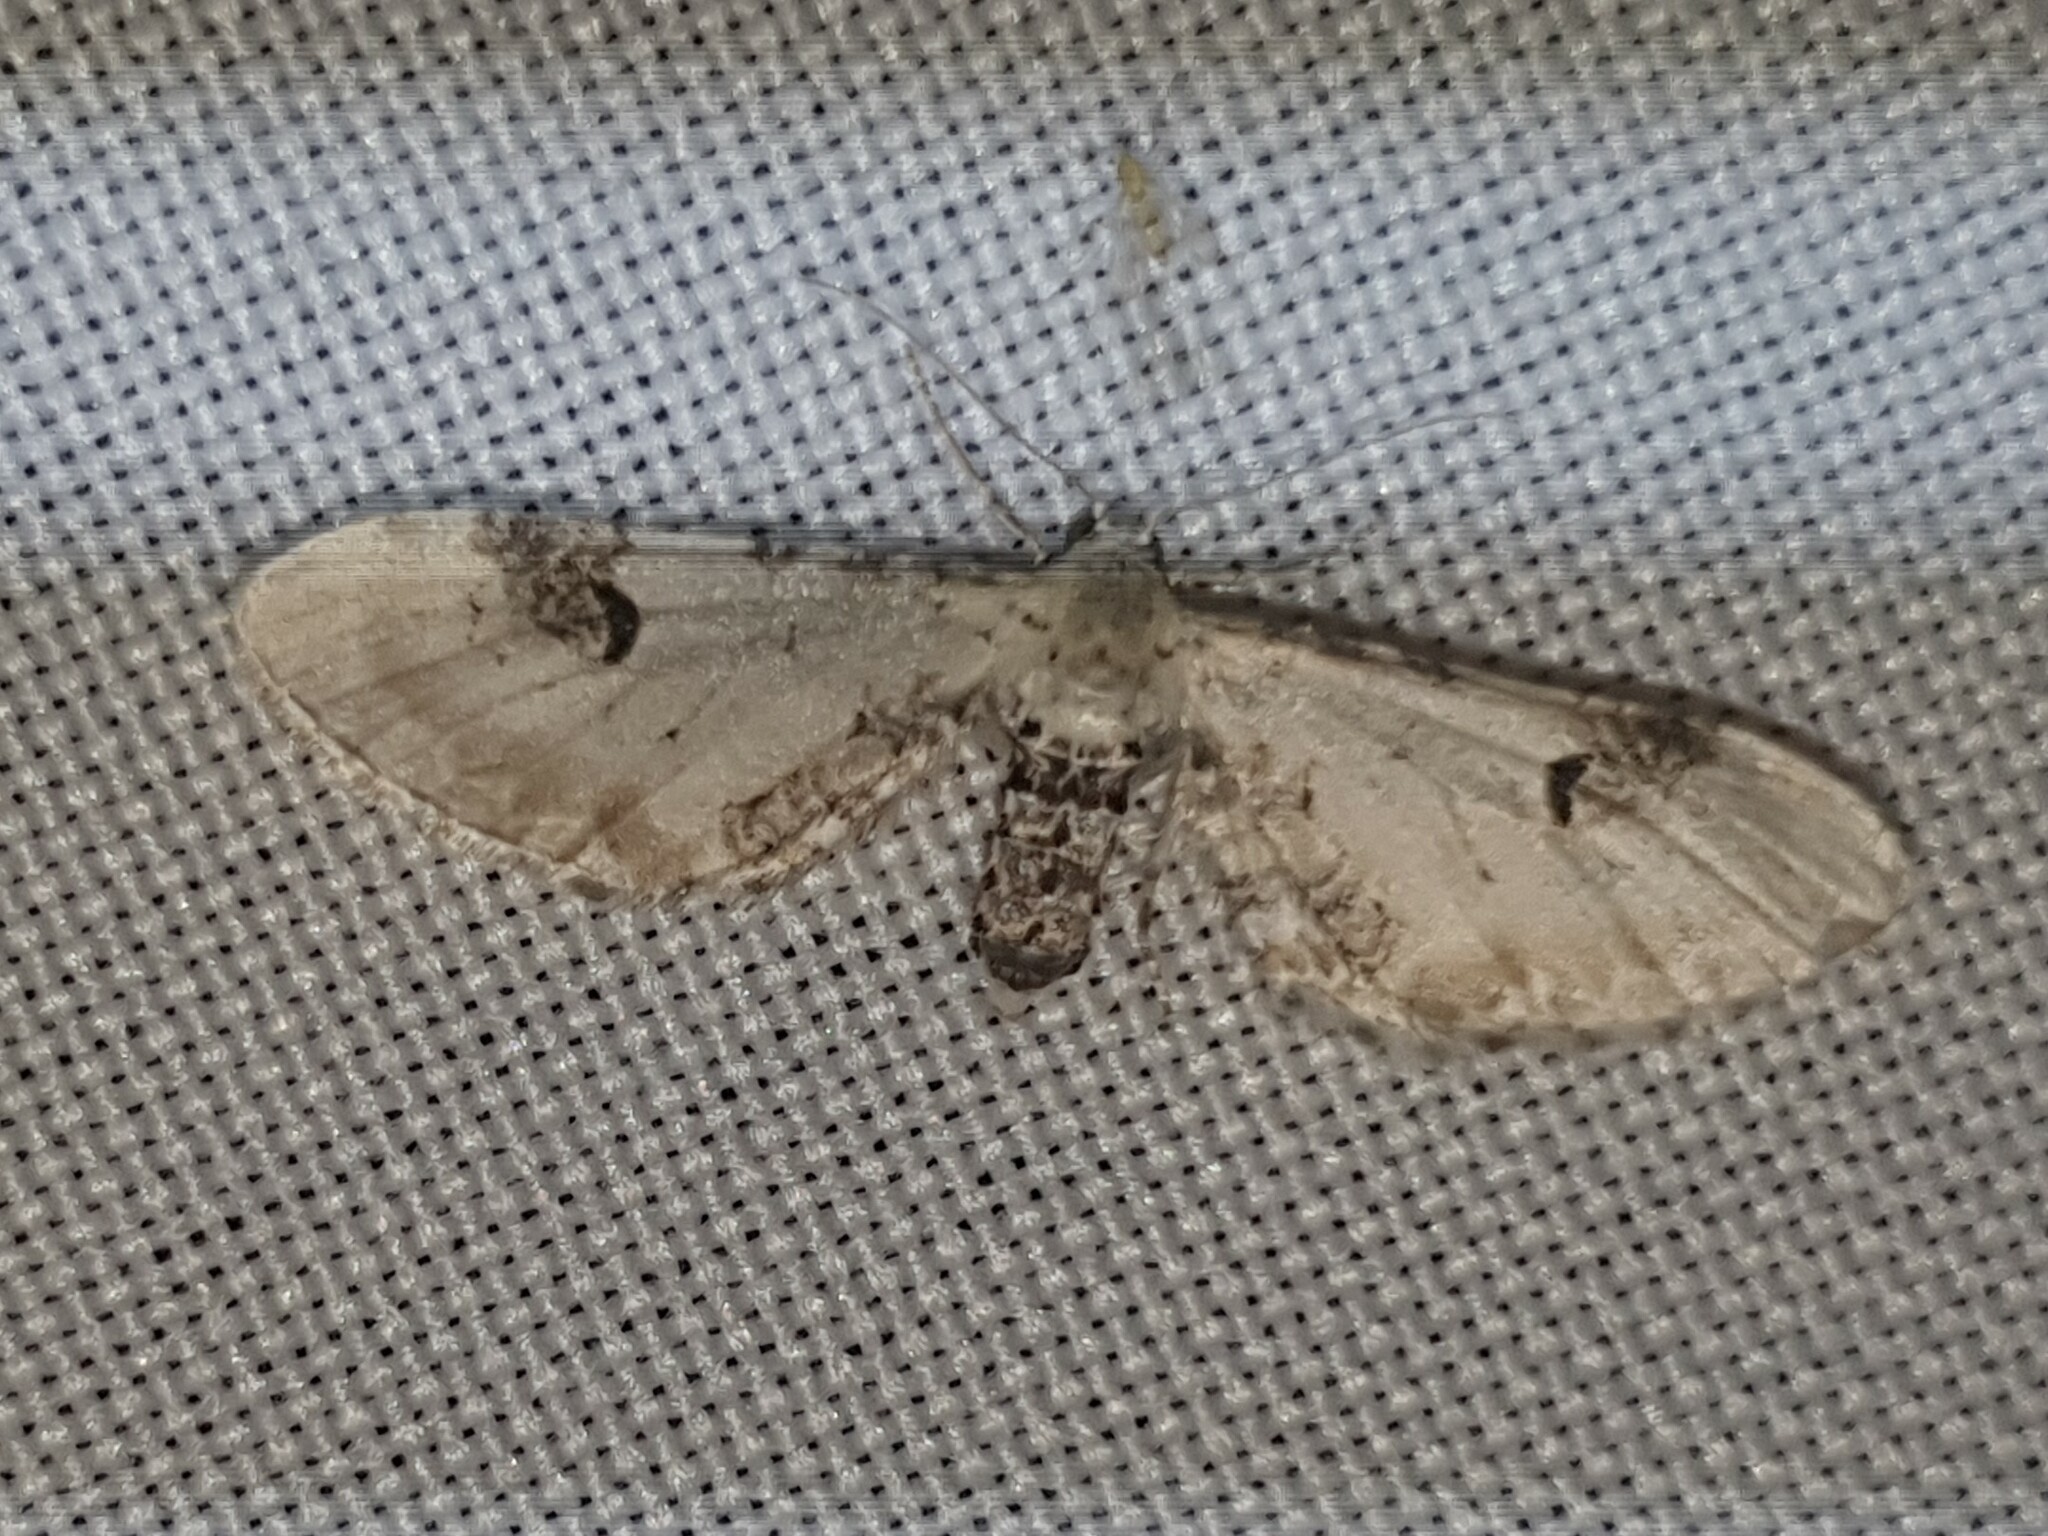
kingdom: Animalia
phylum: Arthropoda
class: Insecta
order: Lepidoptera
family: Geometridae
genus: Eupithecia
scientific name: Eupithecia centaureata
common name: Lime-speck pug
